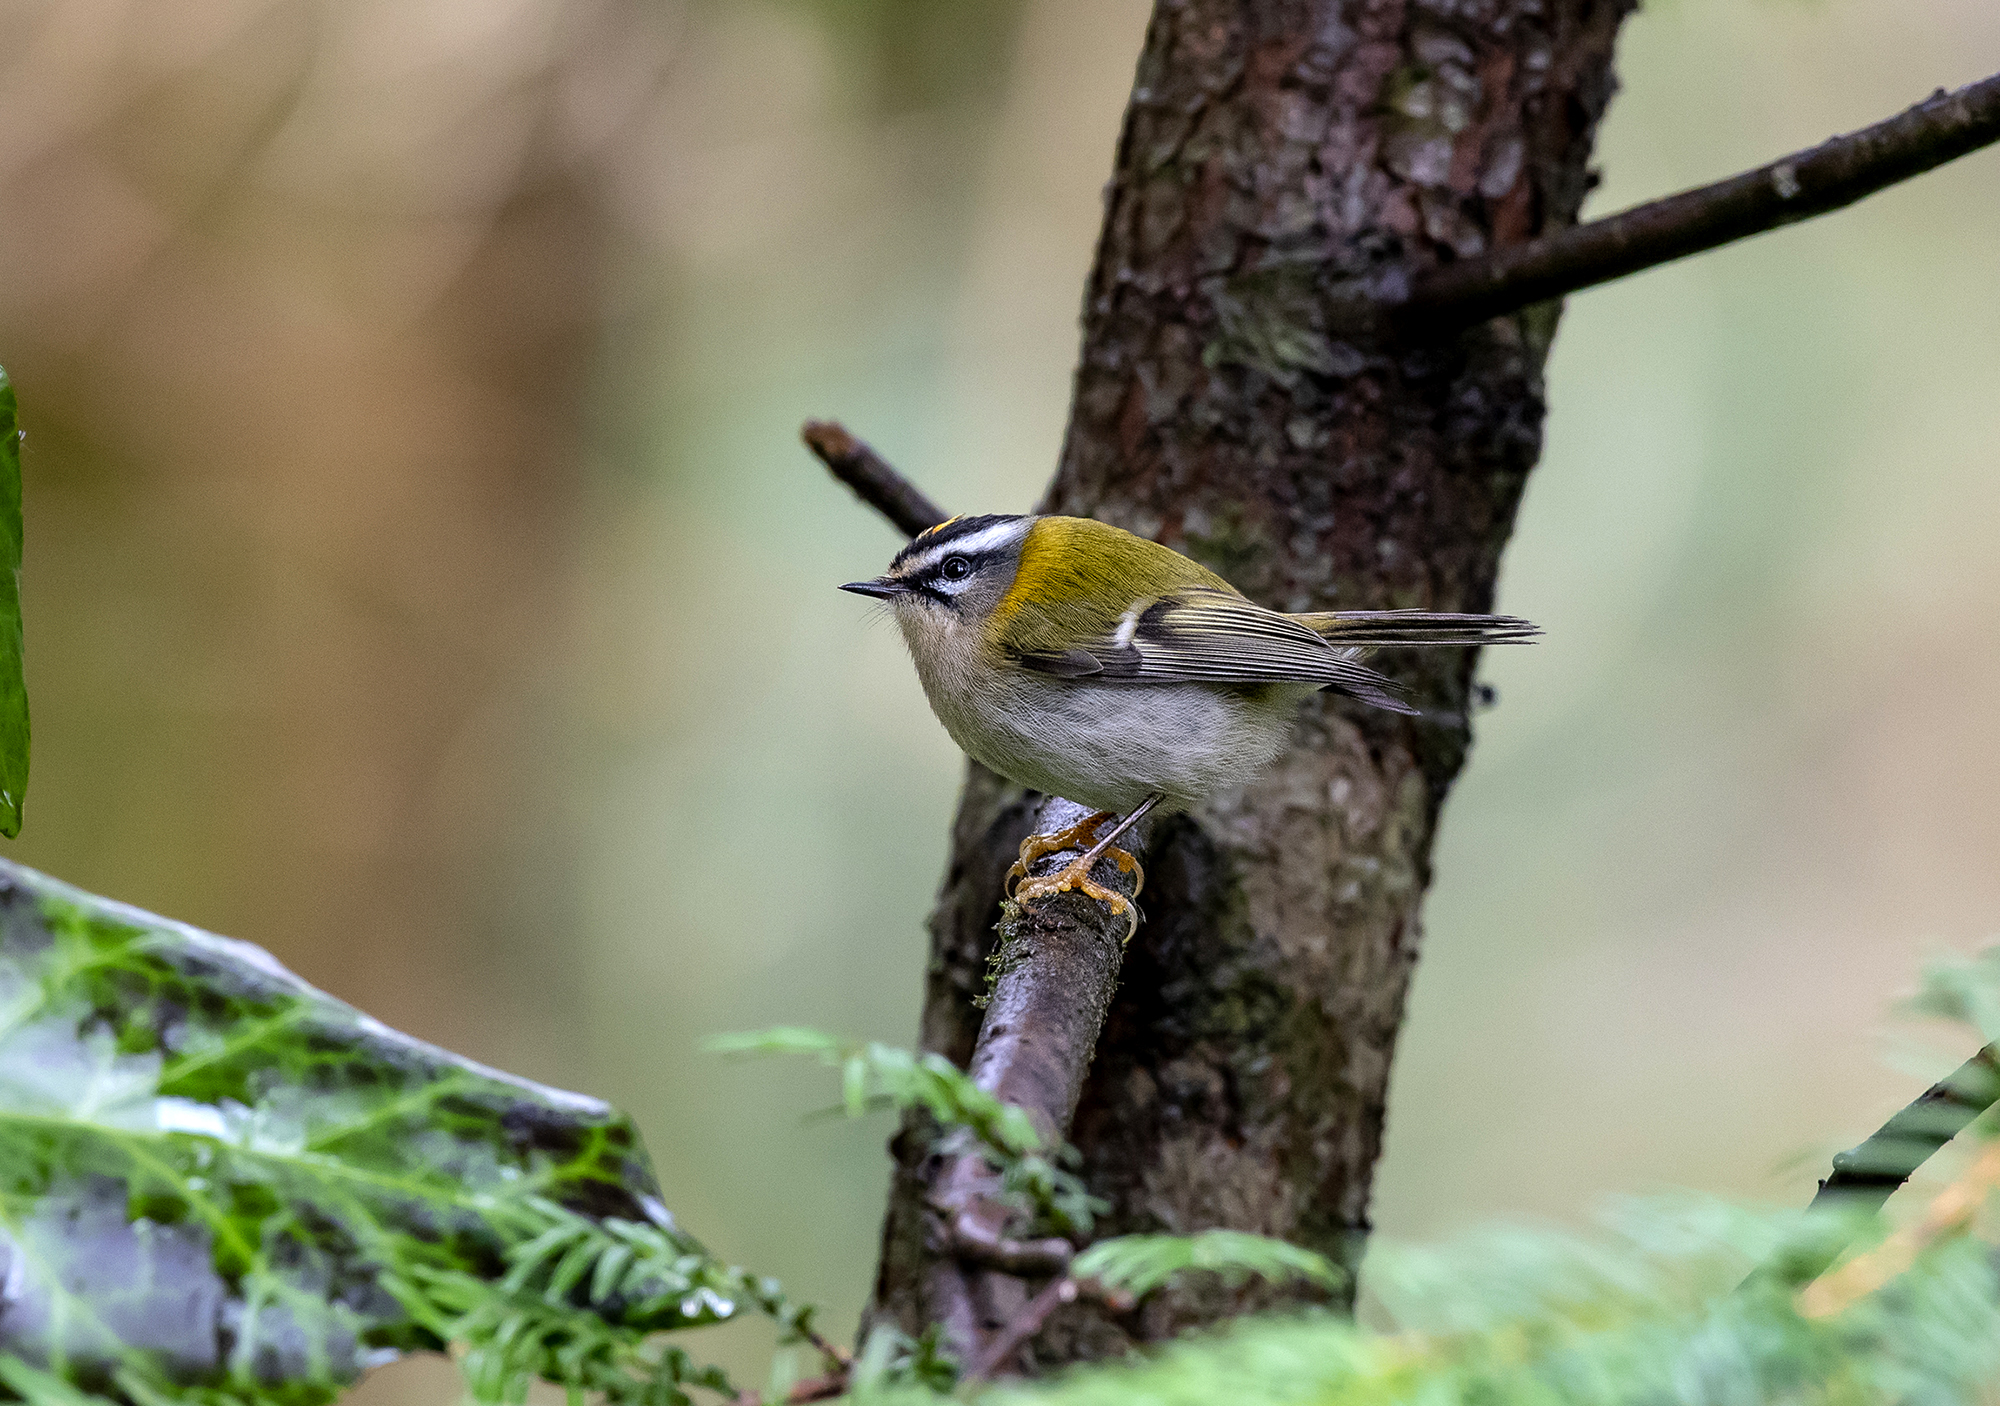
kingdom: Animalia
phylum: Chordata
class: Aves
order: Passeriformes
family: Regulidae
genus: Regulus
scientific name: Regulus ignicapilla
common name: Firecrest
